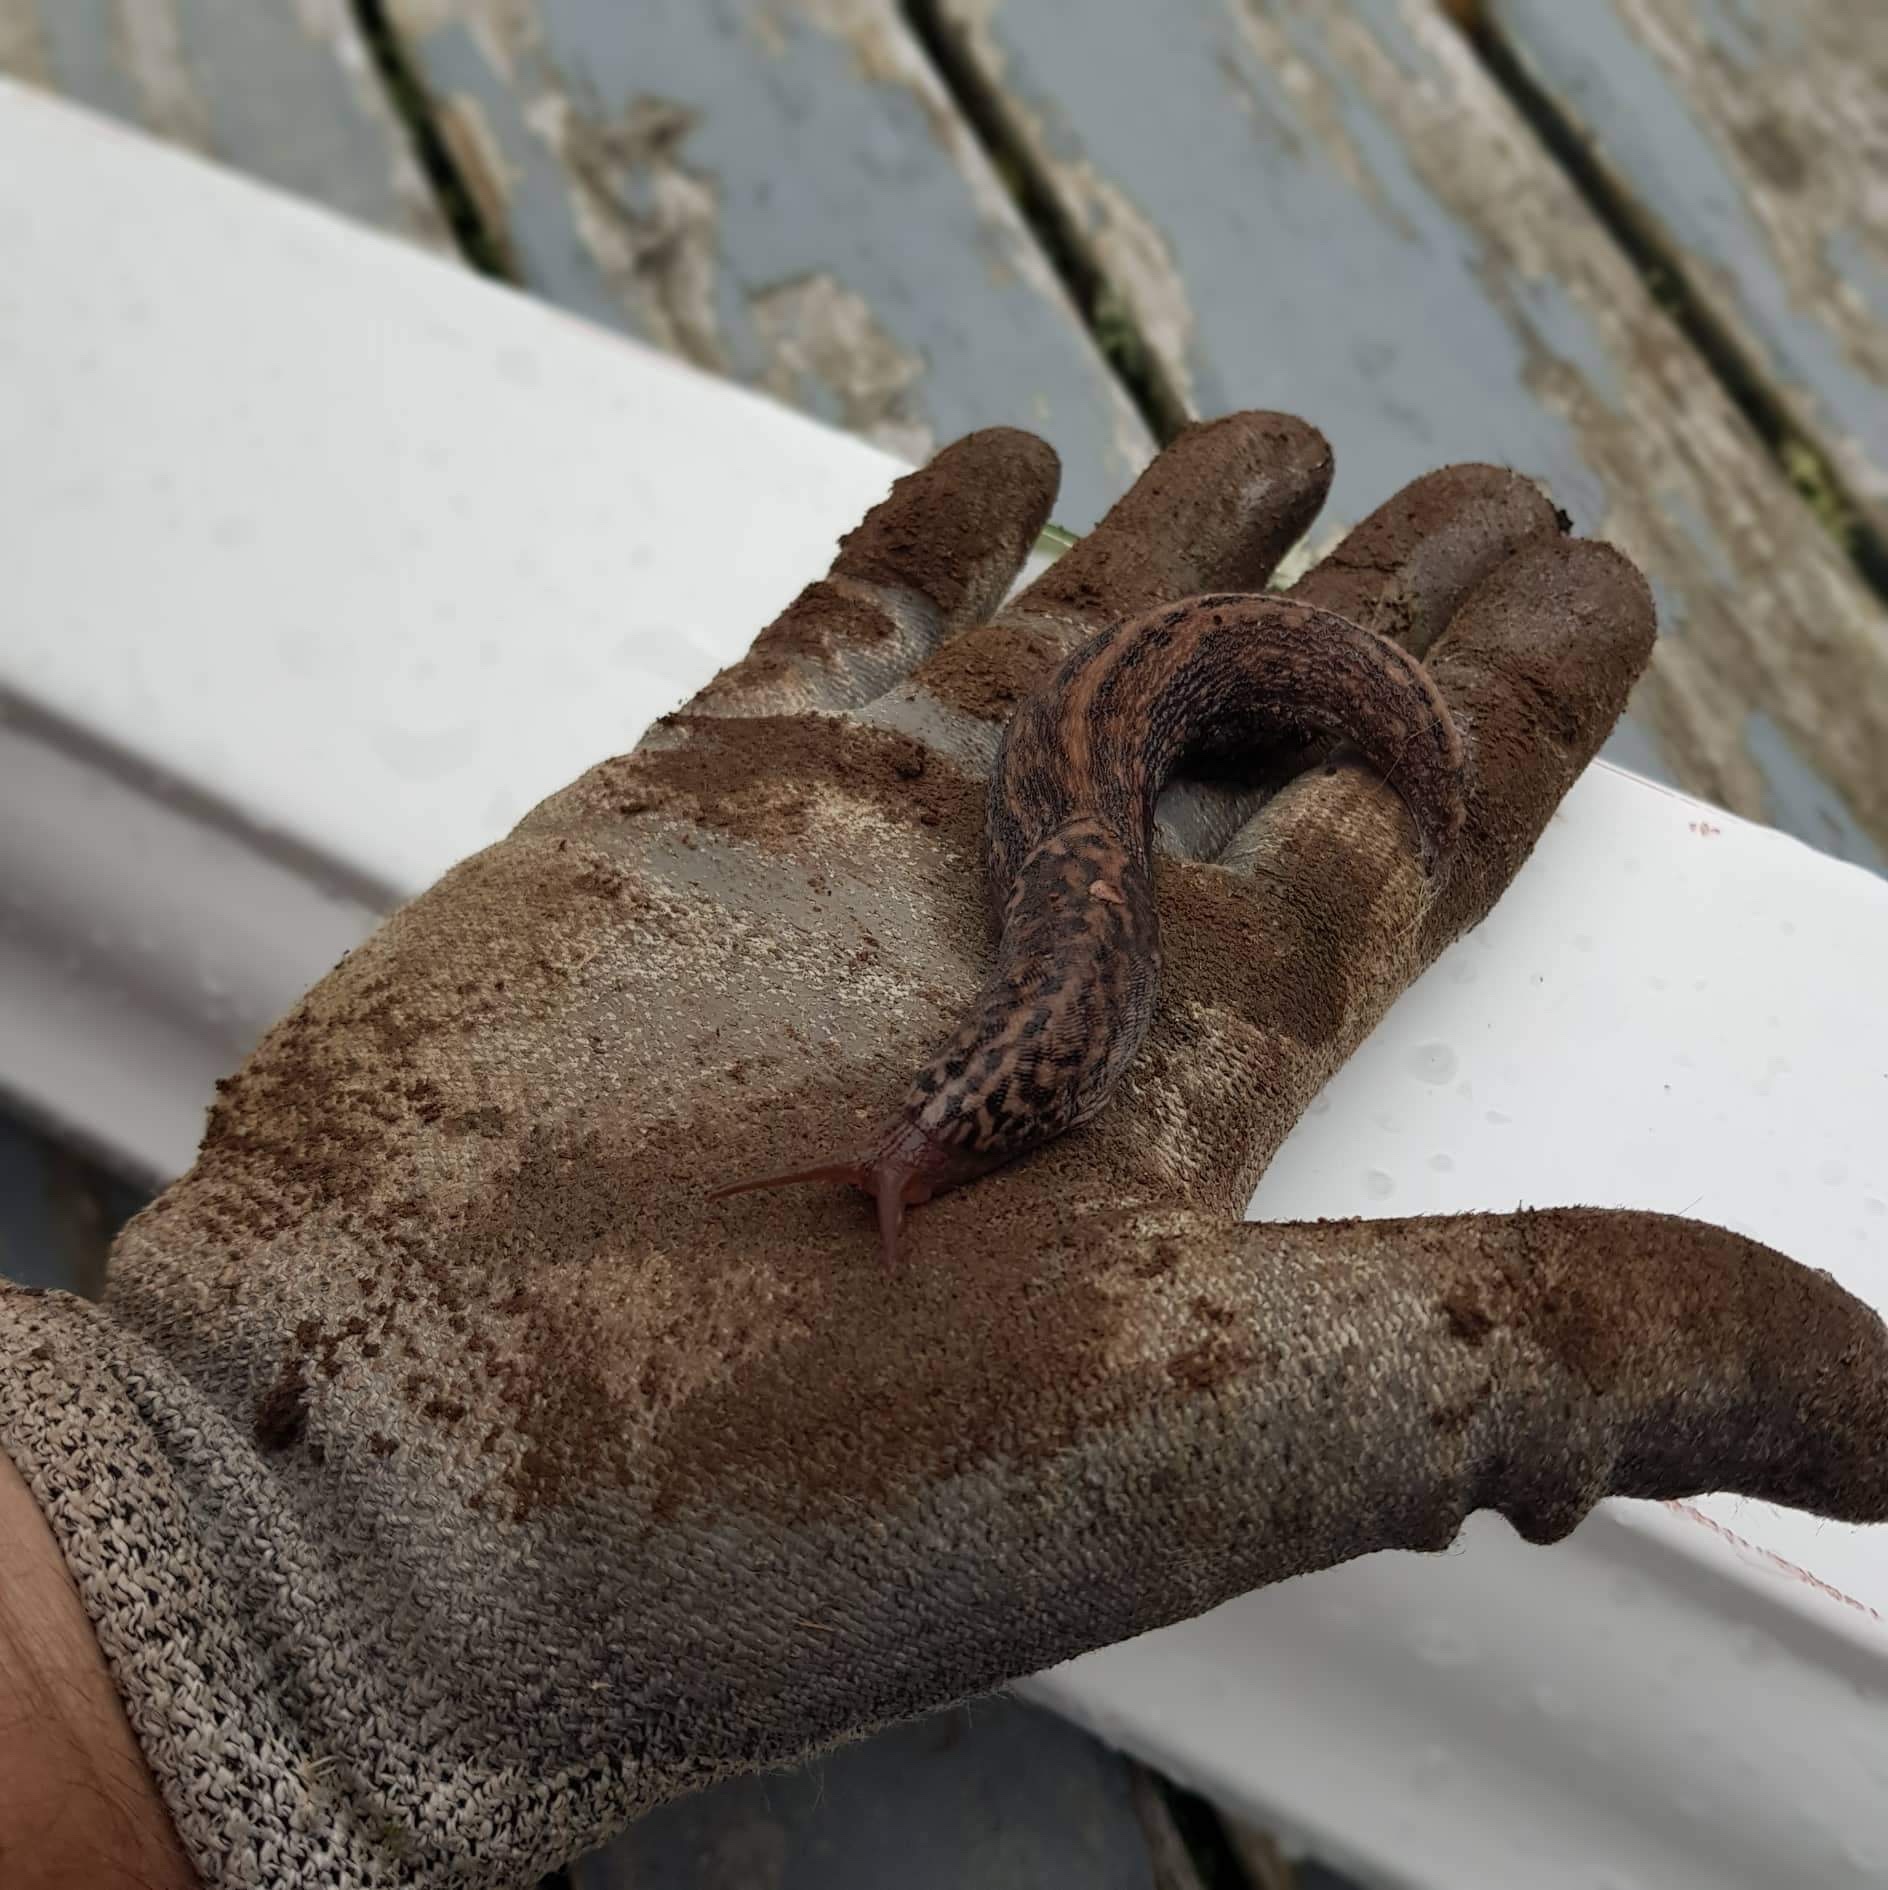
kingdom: Animalia
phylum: Mollusca
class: Gastropoda
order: Stylommatophora
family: Limacidae
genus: Limax
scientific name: Limax maximus
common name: Great grey slug
